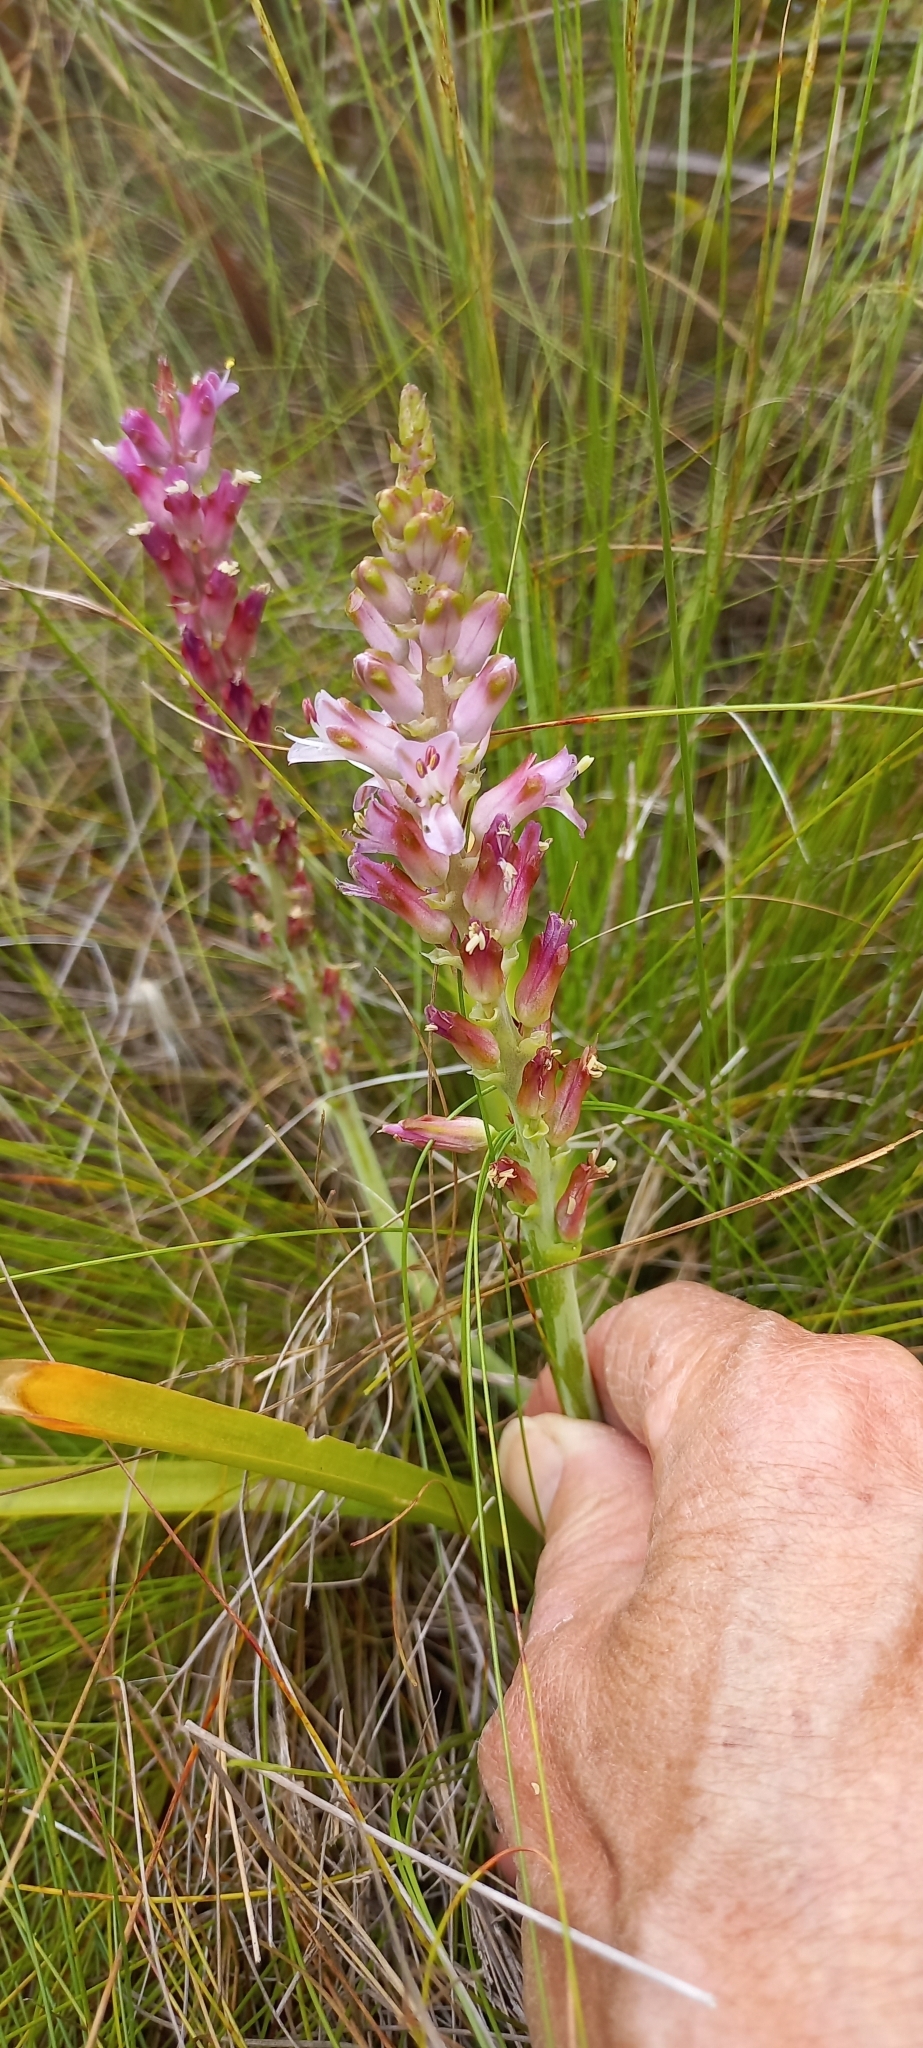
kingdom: Plantae
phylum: Tracheophyta
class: Liliopsida
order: Asparagales
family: Asparagaceae
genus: Lachenalia
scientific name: Lachenalia salteri
